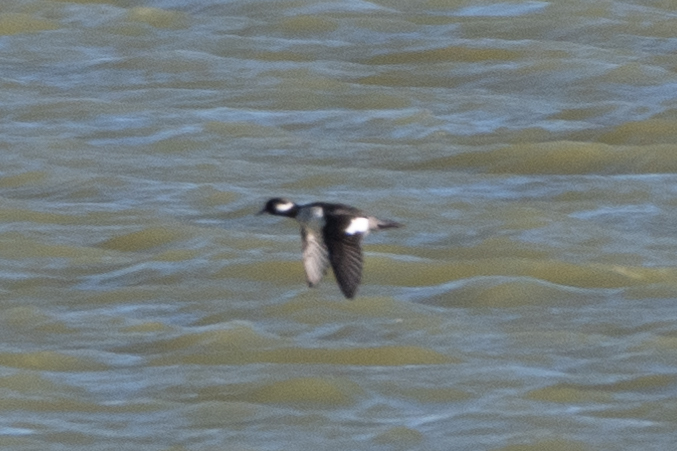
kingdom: Animalia
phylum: Chordata
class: Aves
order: Anseriformes
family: Anatidae
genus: Bucephala
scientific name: Bucephala albeola
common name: Bufflehead
